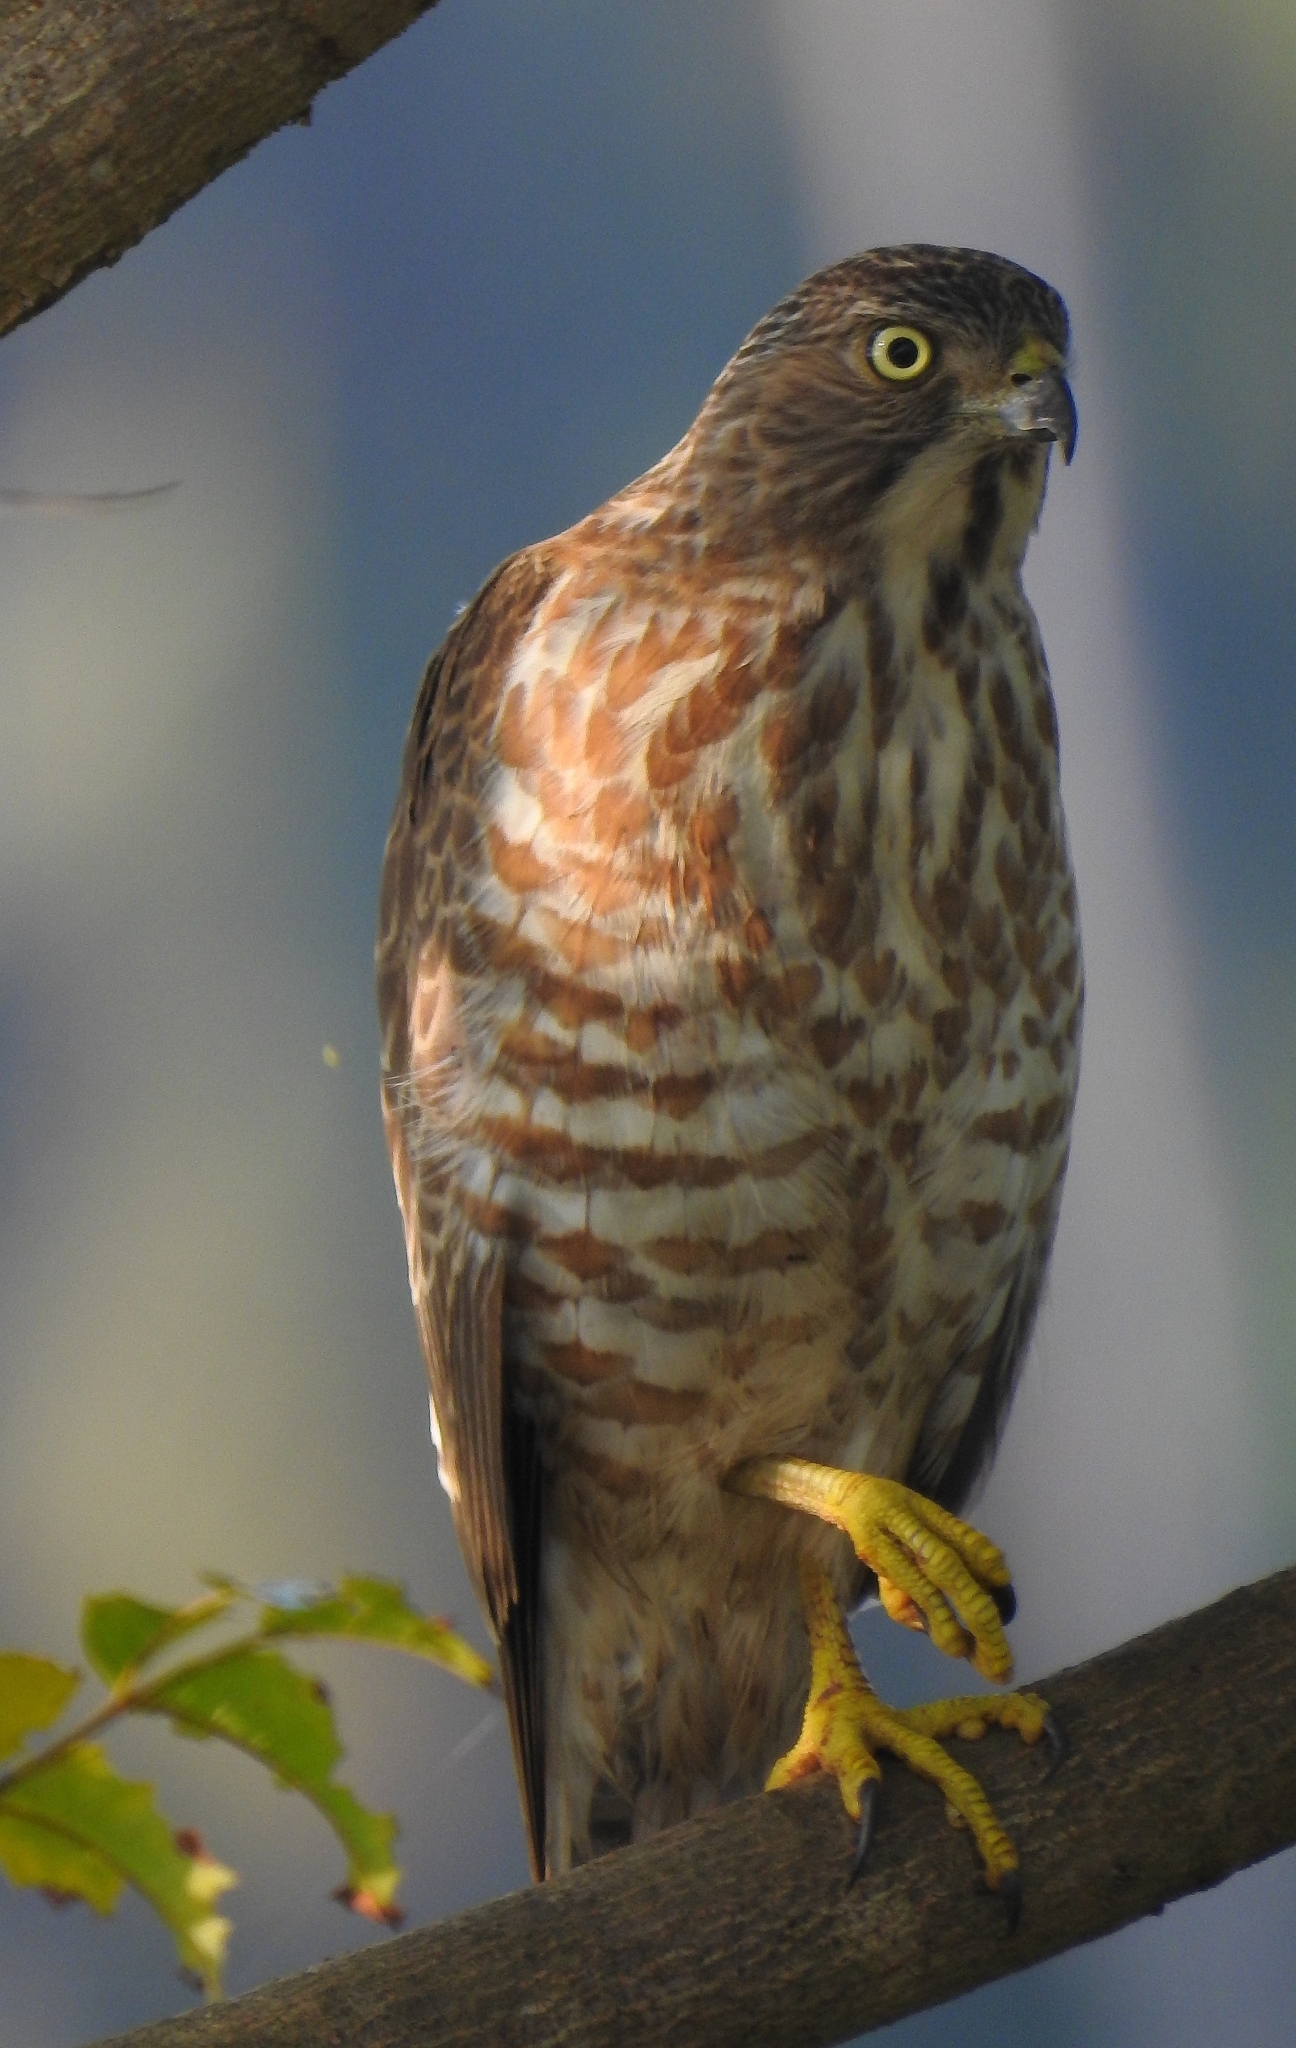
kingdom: Animalia
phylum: Chordata
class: Aves
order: Accipitriformes
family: Accipitridae
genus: Accipiter
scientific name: Accipiter badius
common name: Shikra
